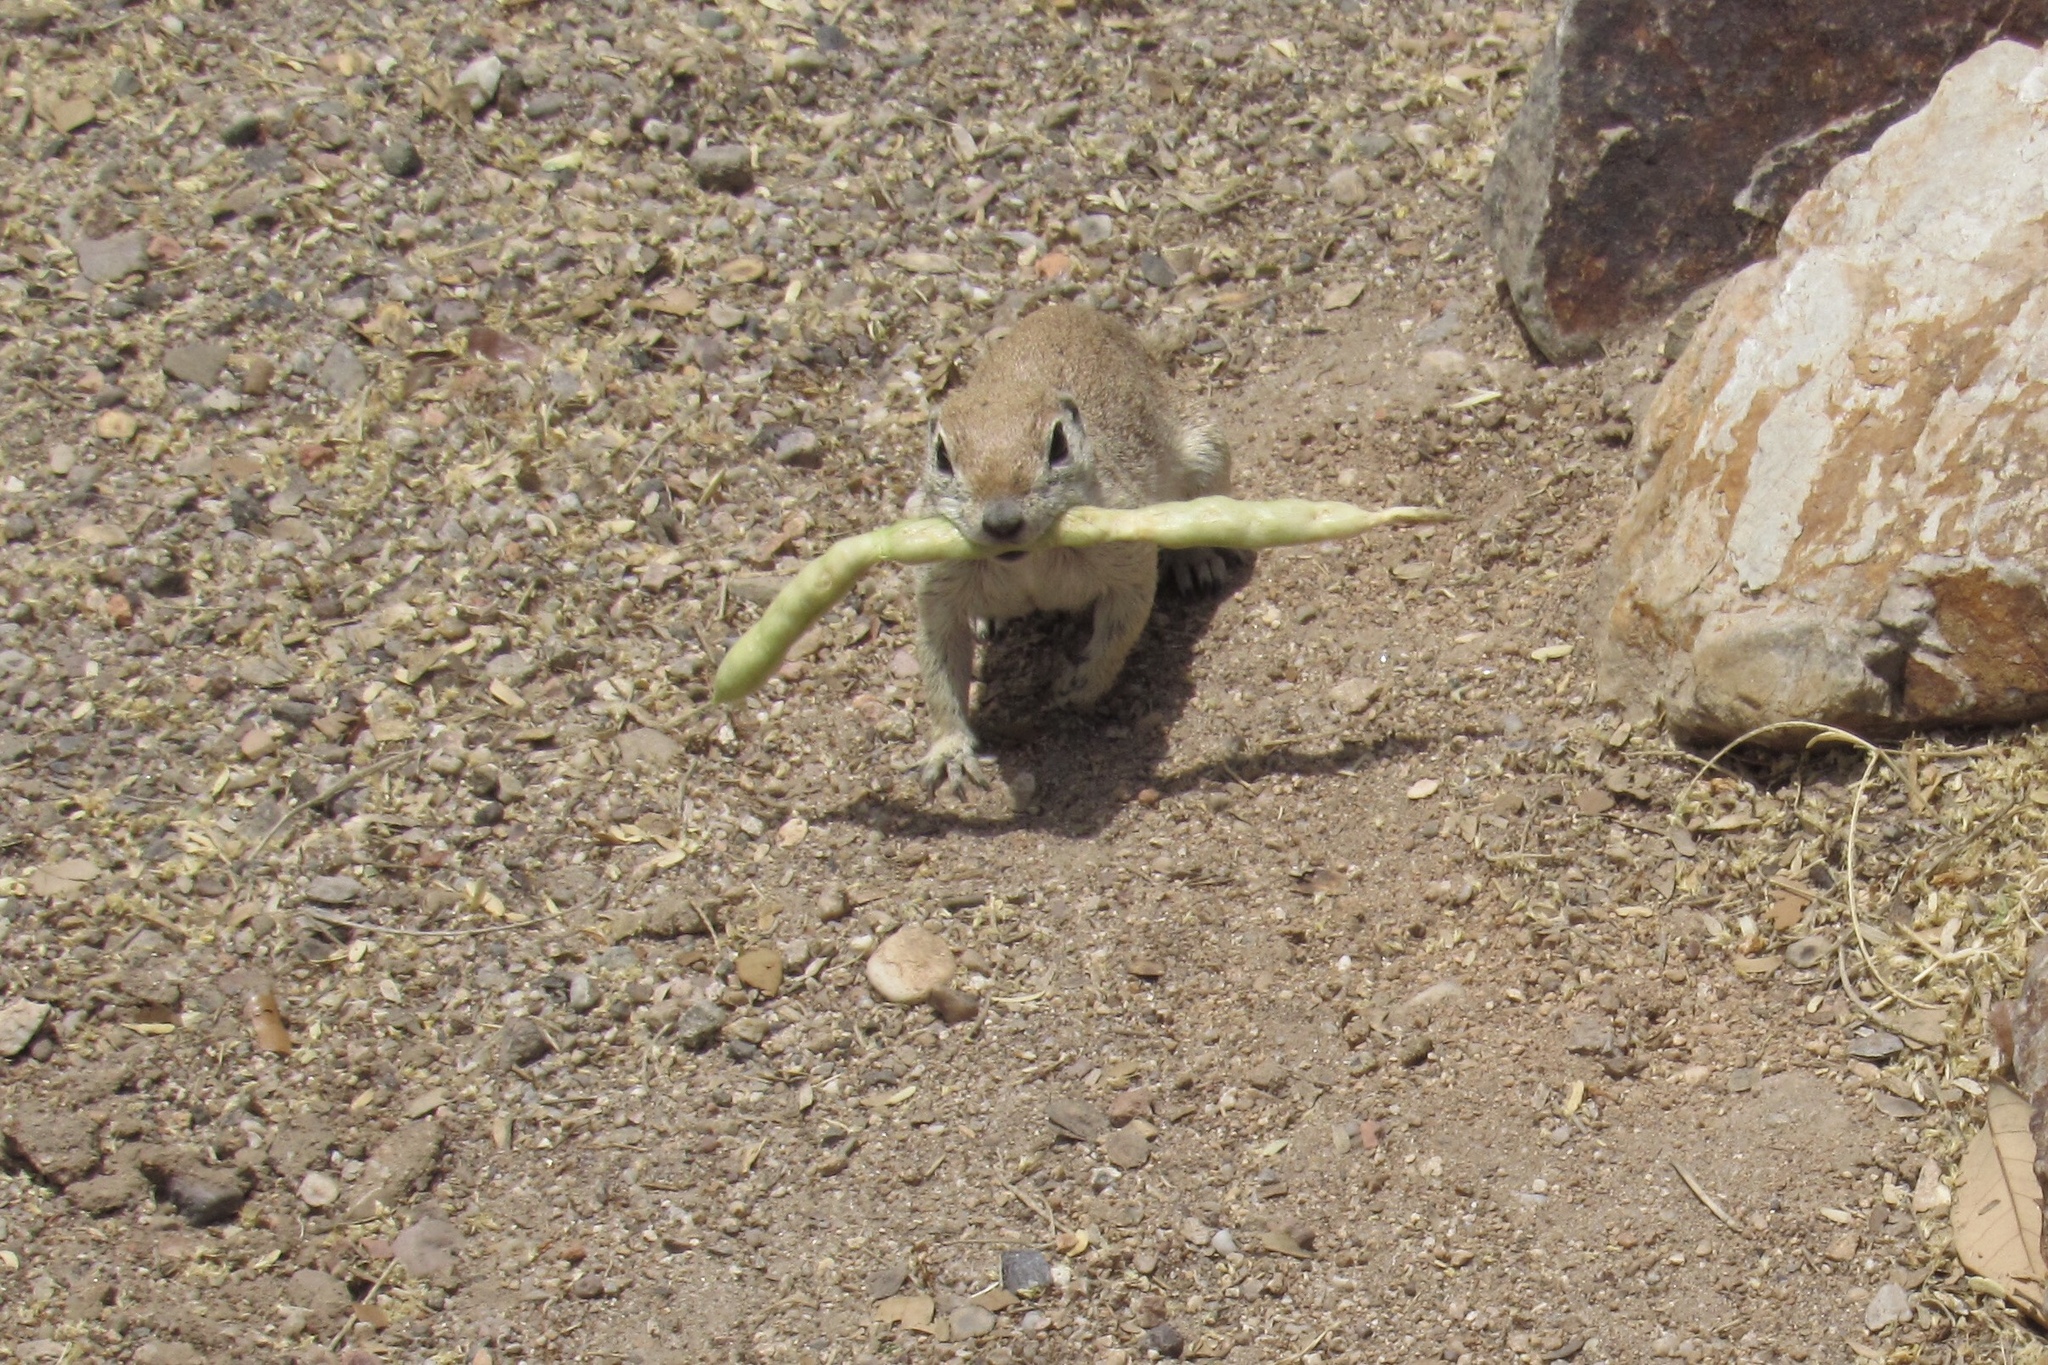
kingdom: Animalia
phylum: Chordata
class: Mammalia
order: Rodentia
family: Sciuridae
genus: Xerospermophilus
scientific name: Xerospermophilus tereticaudus
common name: Round-tailed ground squirrel
